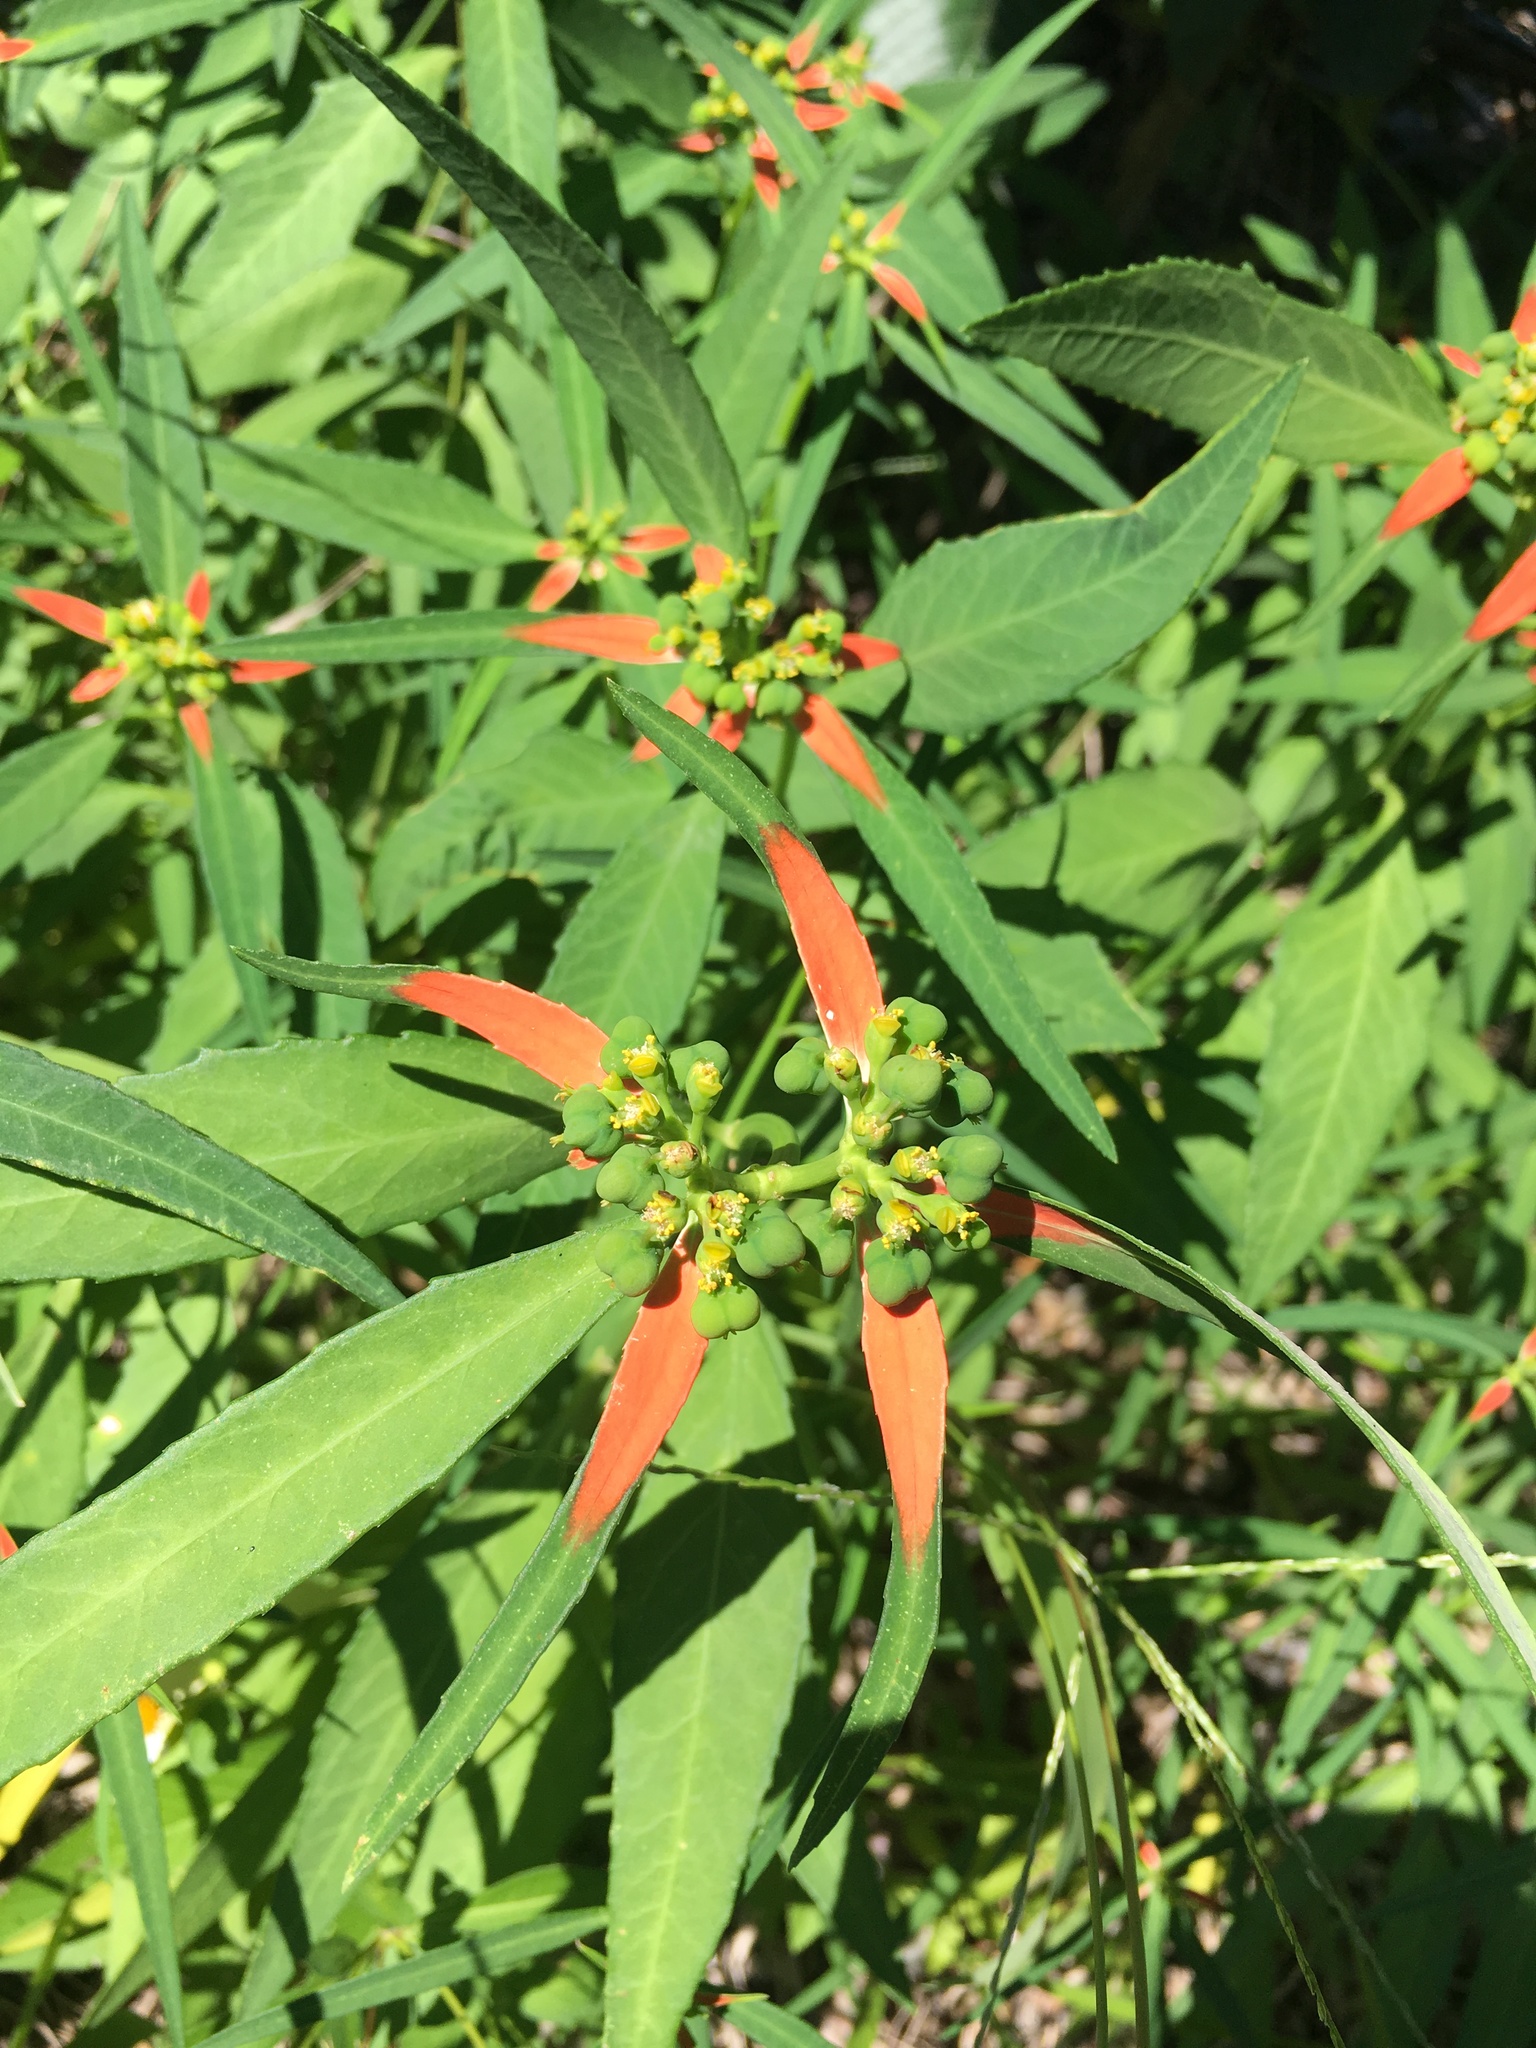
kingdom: Plantae
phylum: Tracheophyta
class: Magnoliopsida
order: Malpighiales
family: Euphorbiaceae
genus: Euphorbia
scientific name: Euphorbia heterophylla
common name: Mexican fireplant
